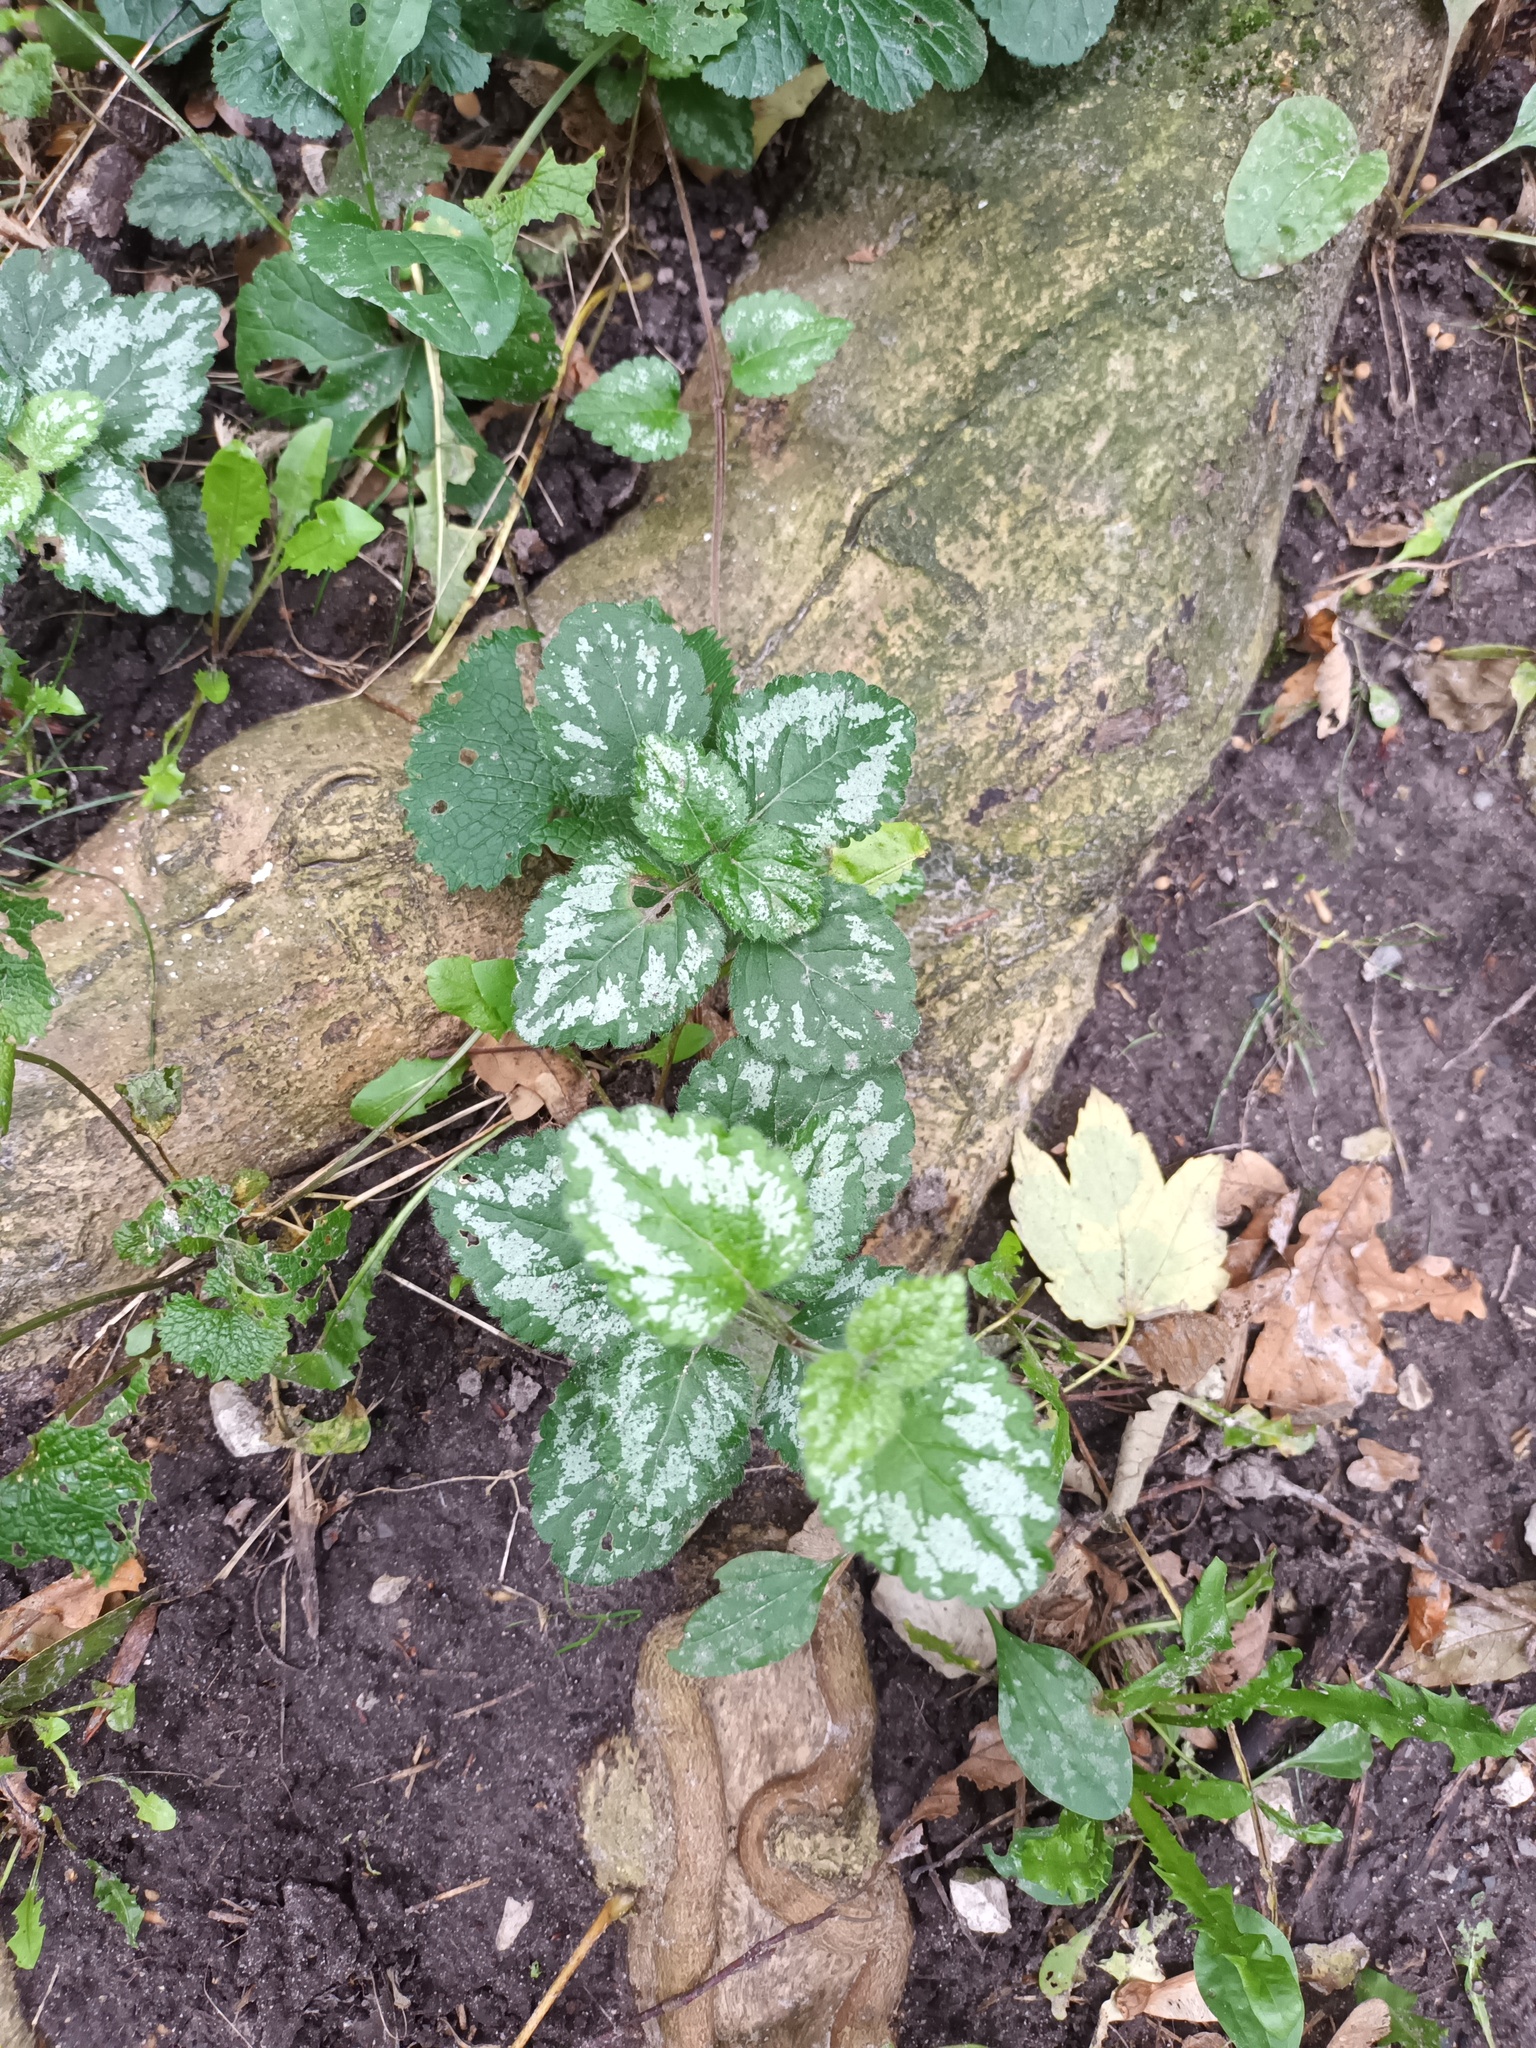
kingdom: Plantae
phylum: Tracheophyta
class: Magnoliopsida
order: Lamiales
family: Lamiaceae
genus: Lamium
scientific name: Lamium galeobdolon
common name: Yellow archangel
